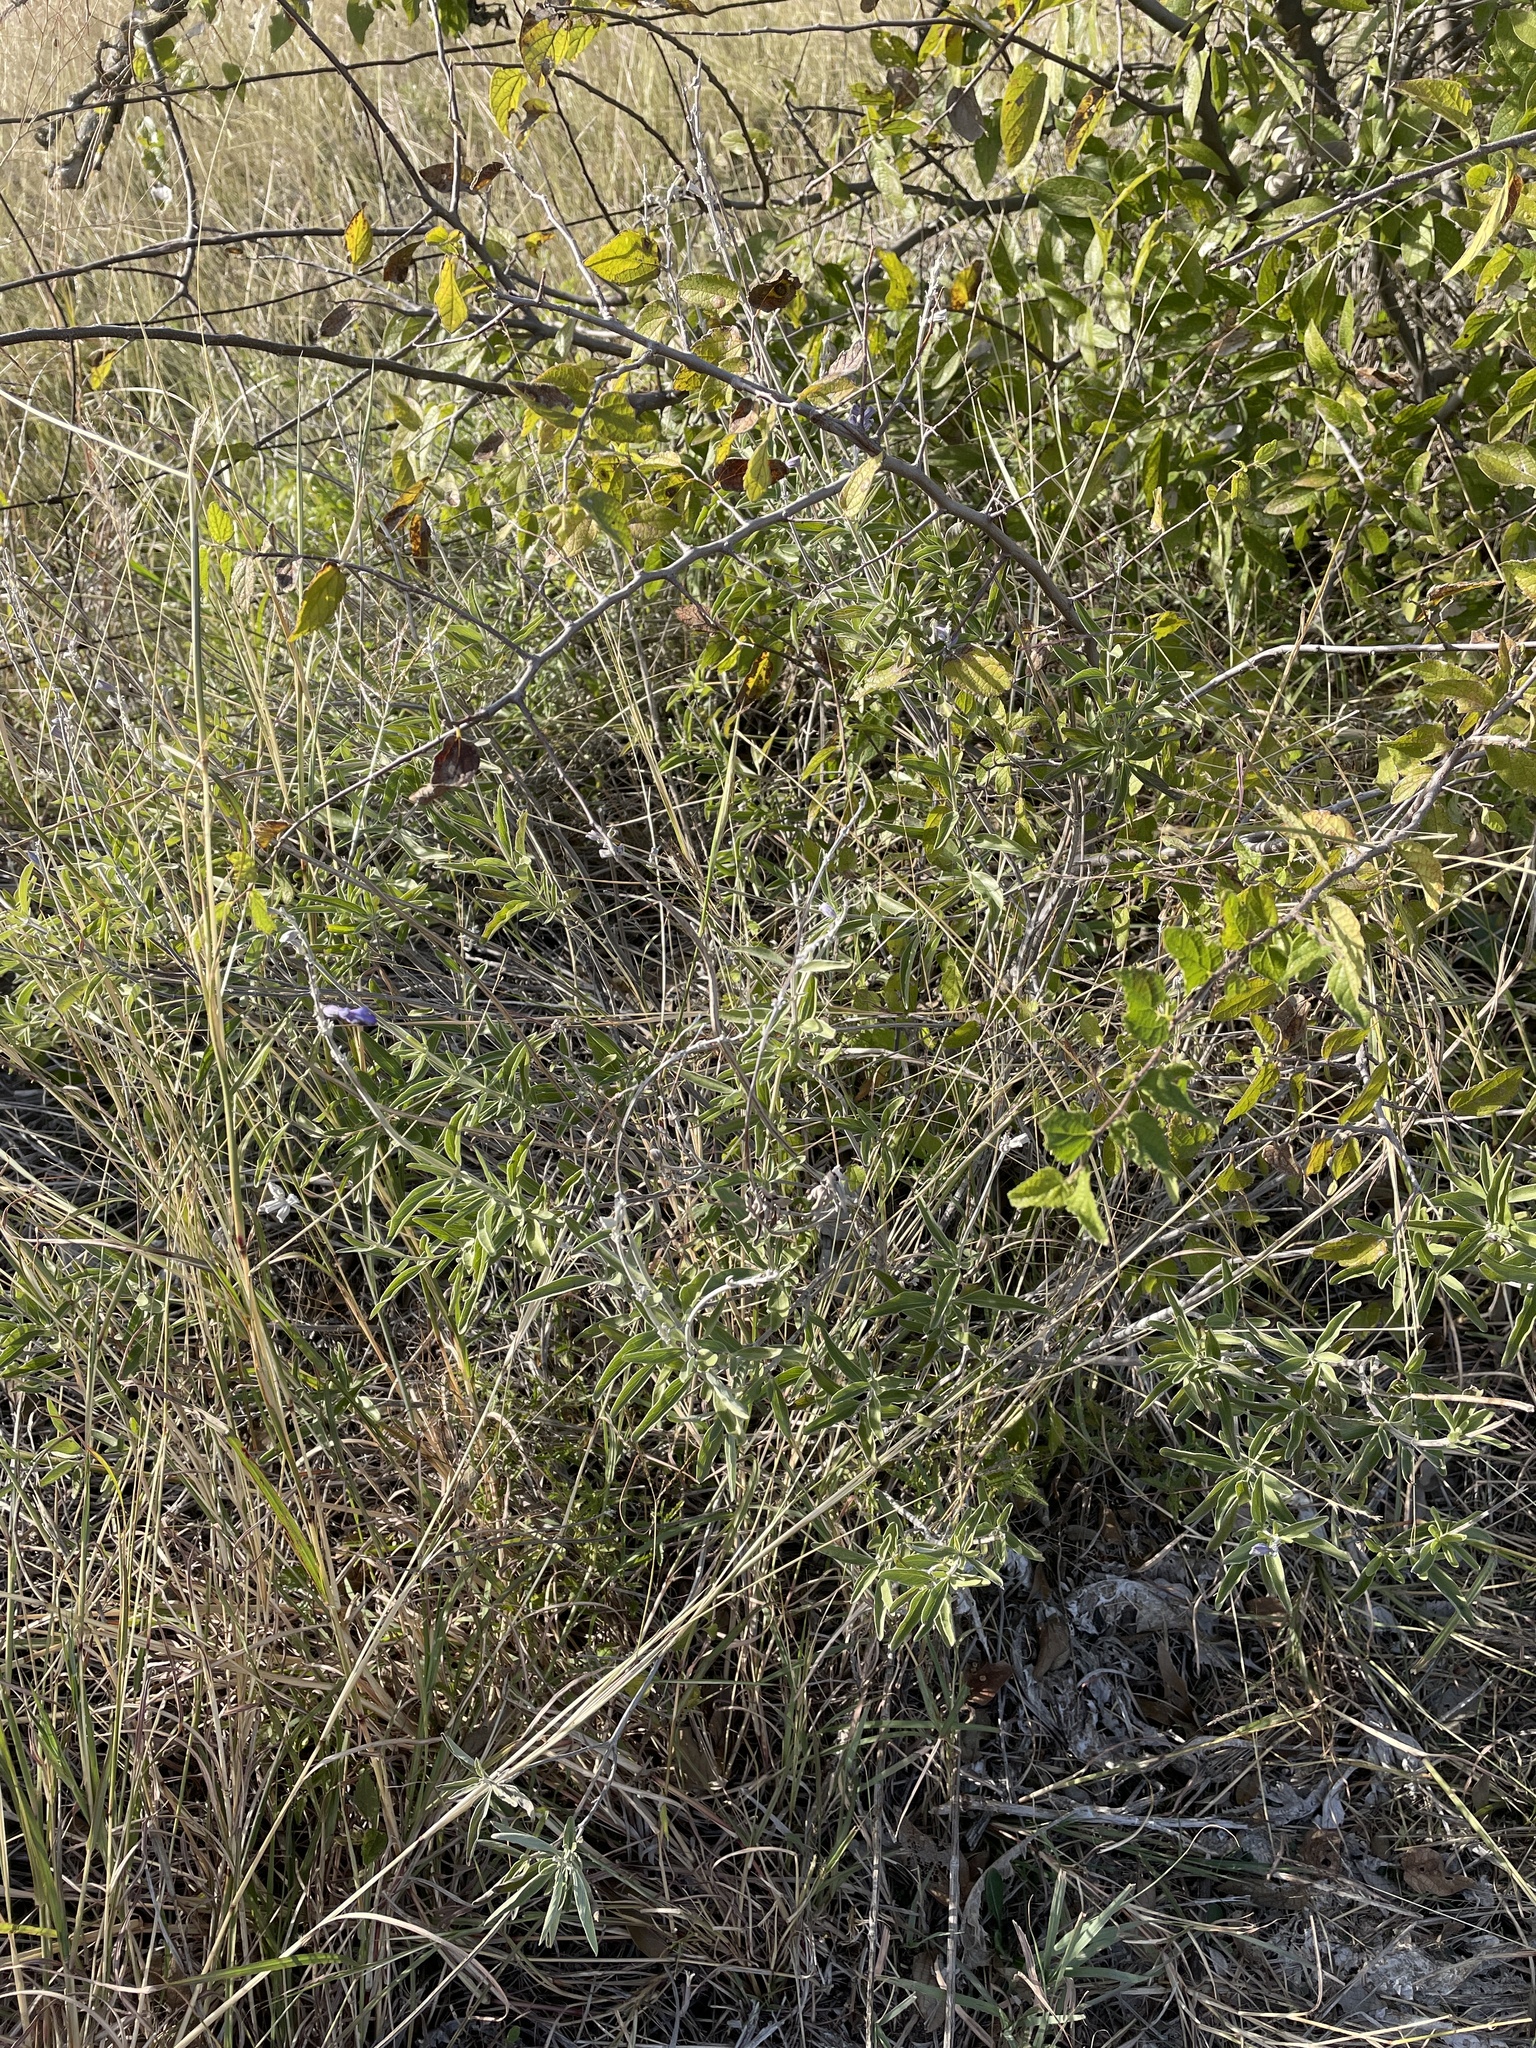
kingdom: Plantae
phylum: Tracheophyta
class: Magnoliopsida
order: Lamiales
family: Lamiaceae
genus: Salvia
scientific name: Salvia farinacea
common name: Mealy sage
